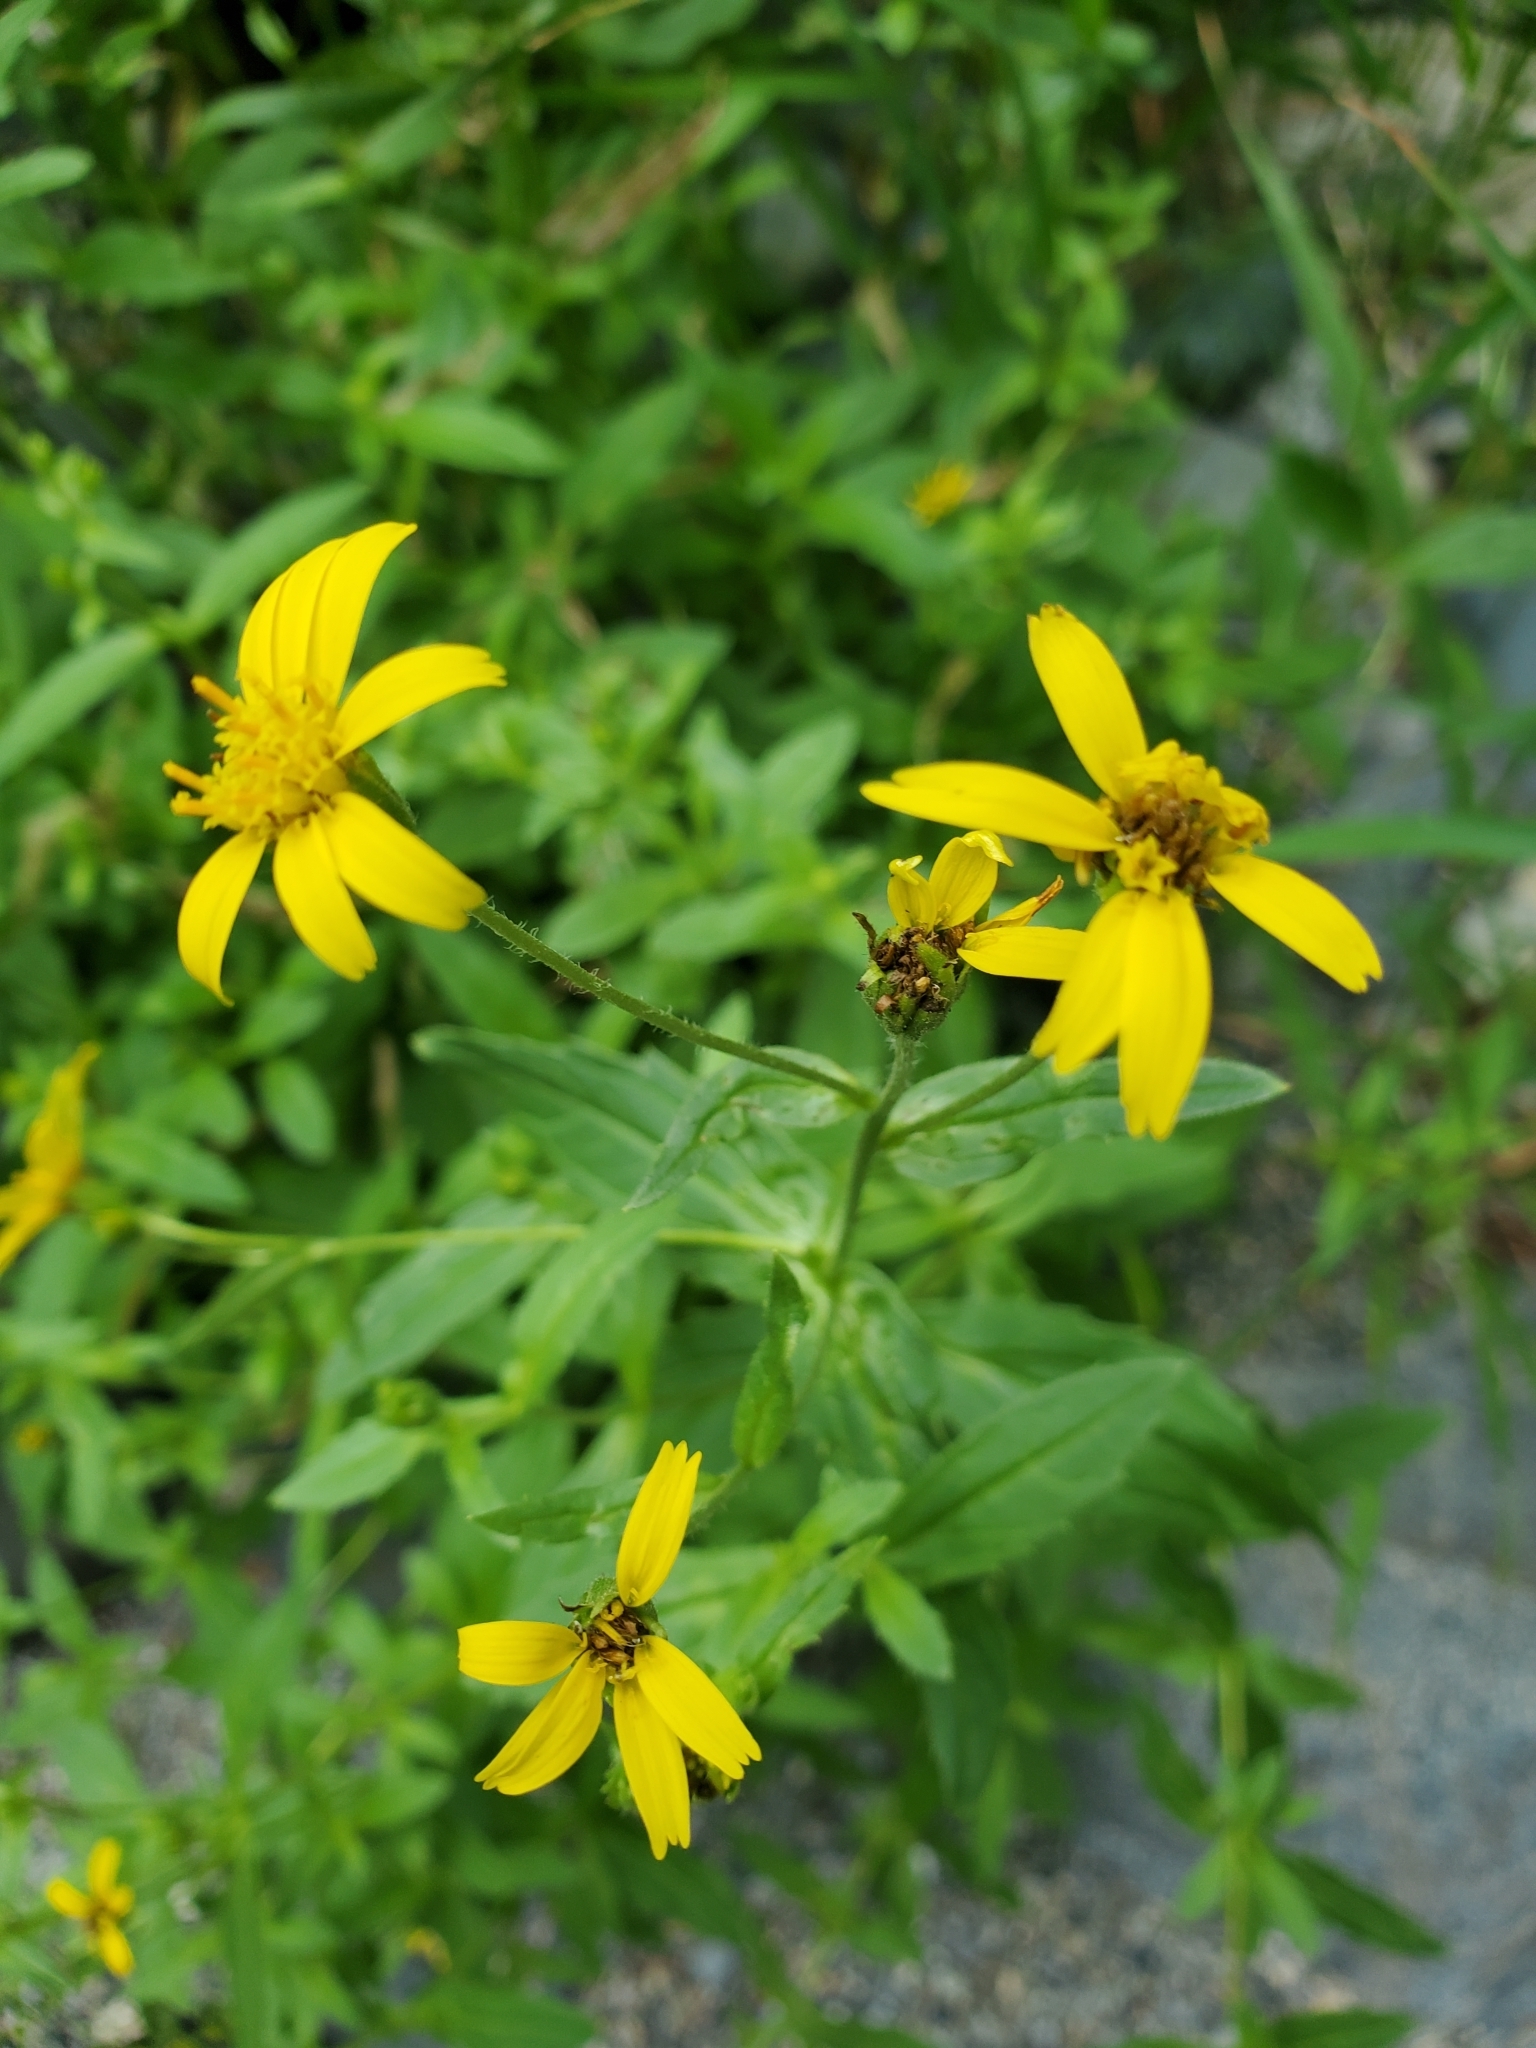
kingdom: Plantae
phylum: Tracheophyta
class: Magnoliopsida
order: Asterales
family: Asteraceae
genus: Arnica
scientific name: Arnica lanceolata
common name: Lance-leaved arnica
